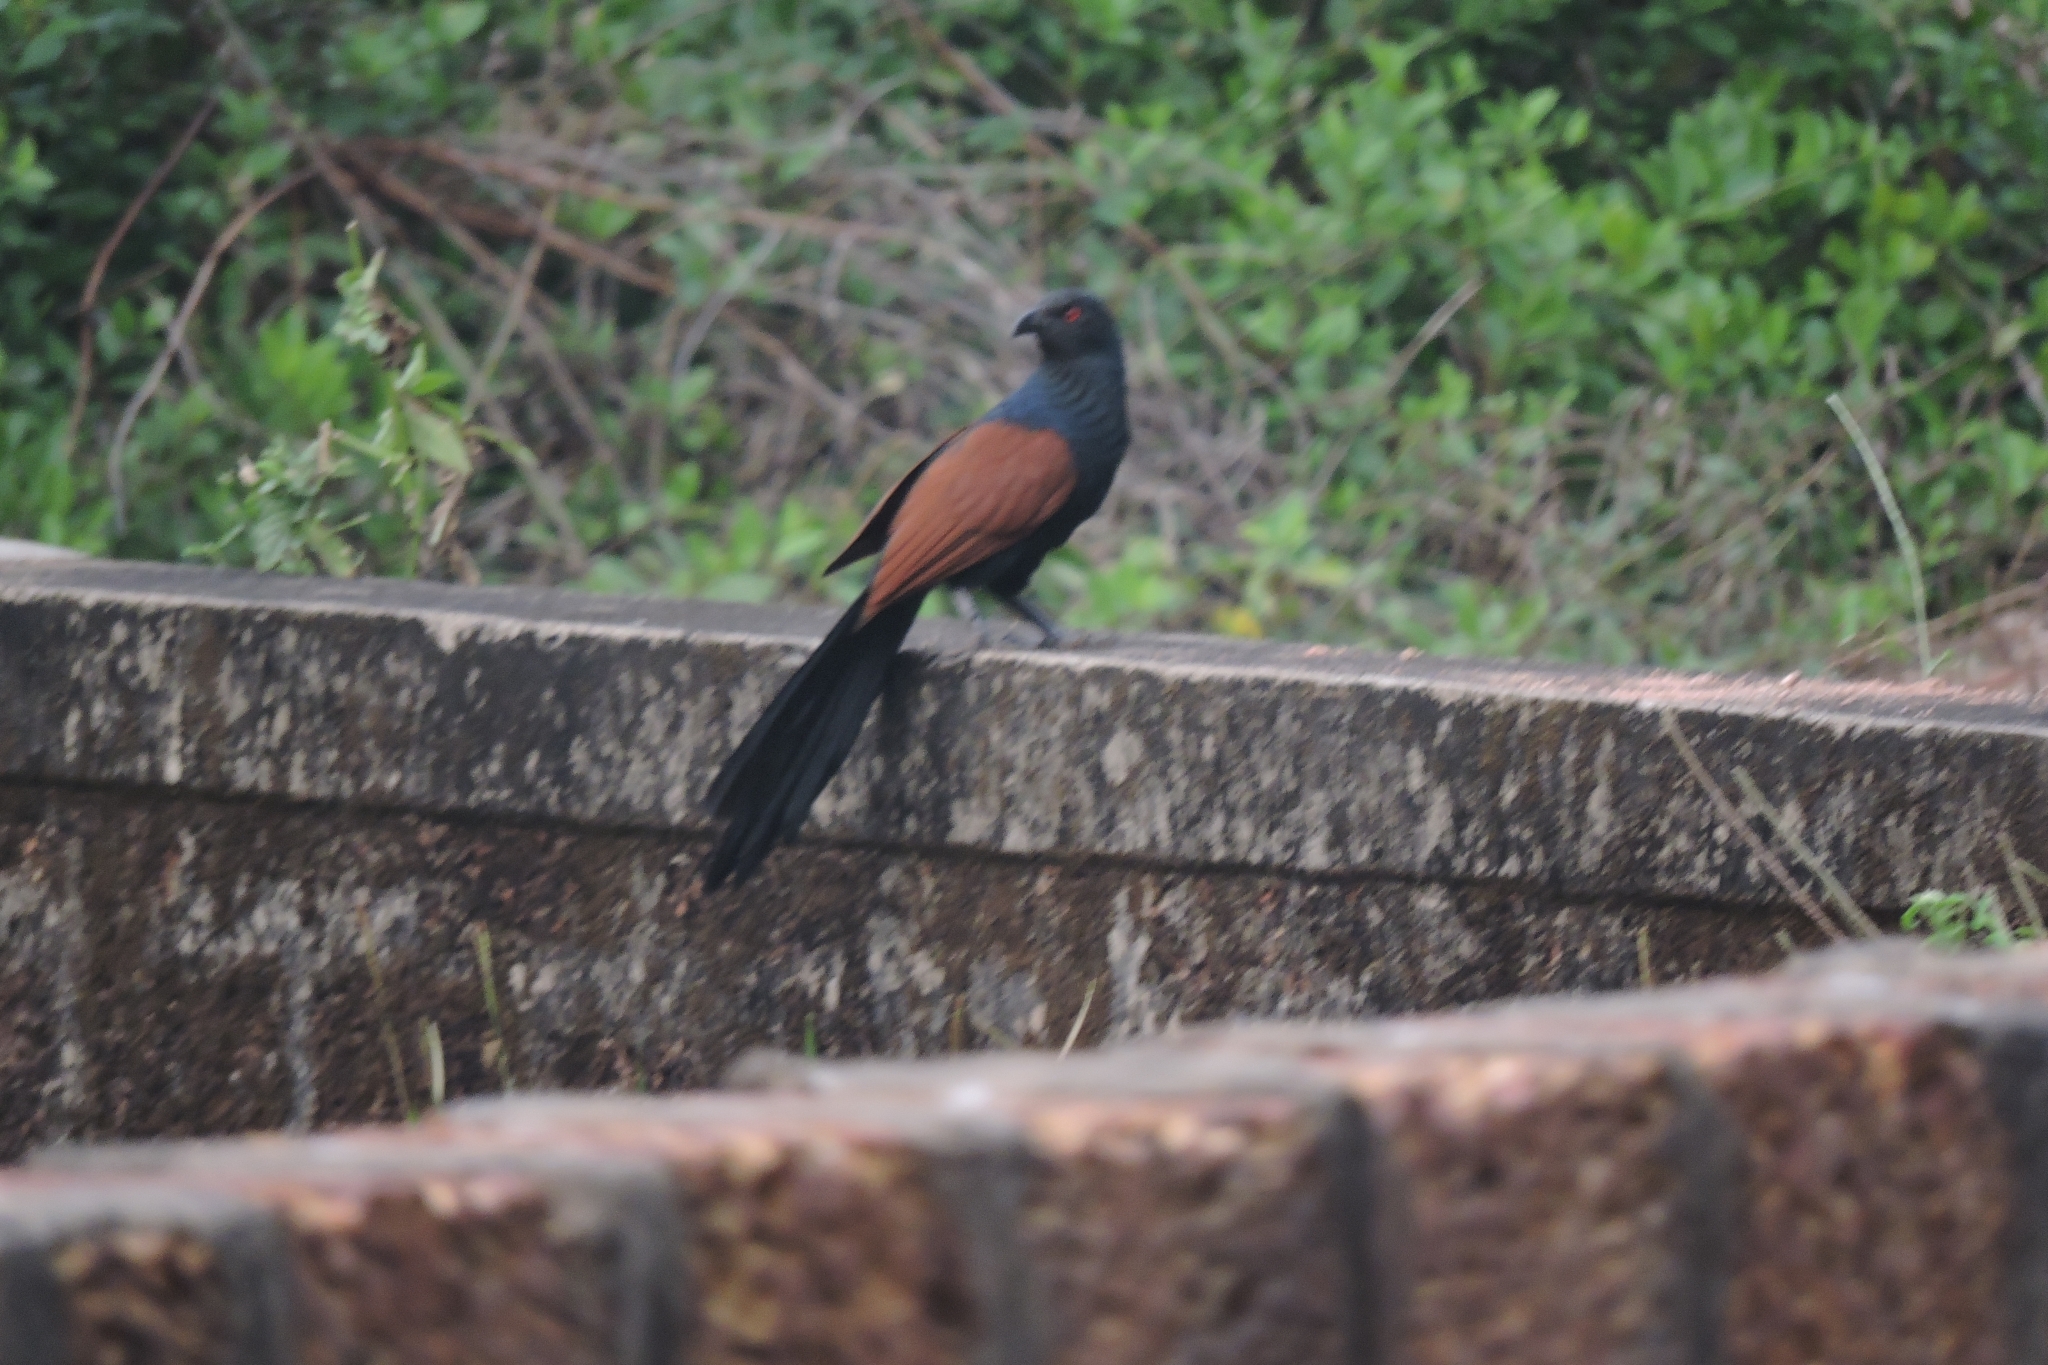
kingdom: Animalia
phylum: Chordata
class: Aves
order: Cuculiformes
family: Cuculidae
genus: Centropus
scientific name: Centropus sinensis
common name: Greater coucal
